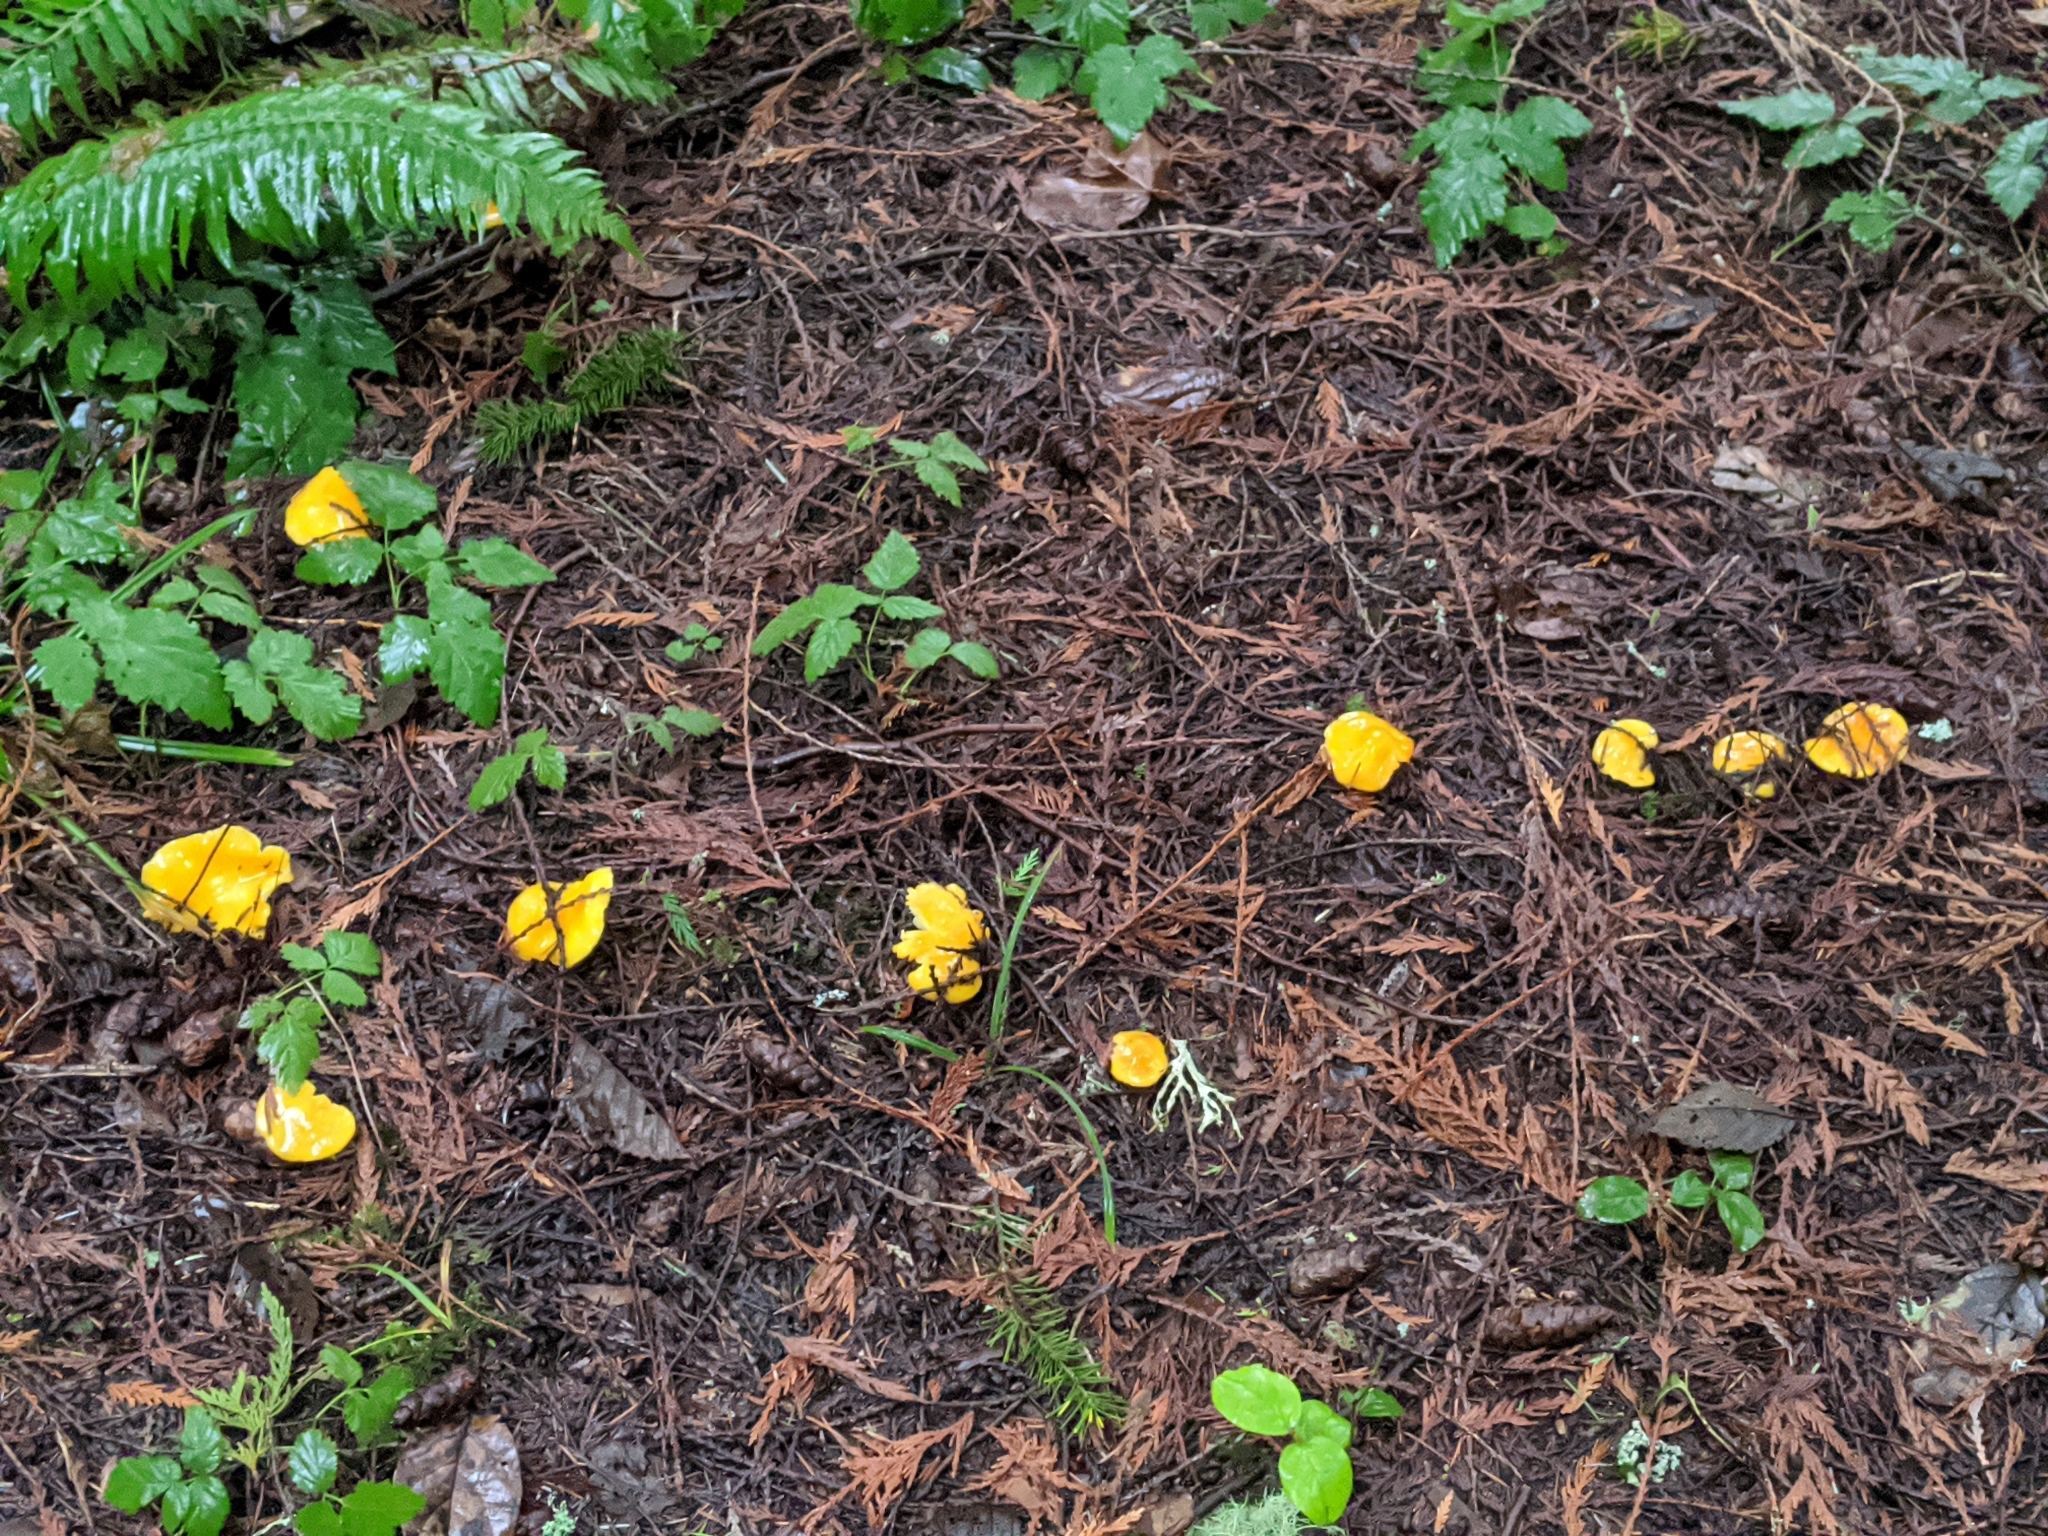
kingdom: Fungi
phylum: Basidiomycota
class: Agaricomycetes
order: Agaricales
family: Hygrophoraceae
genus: Hygrocybe
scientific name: Hygrocybe flavescens
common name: Golden waxy cap
